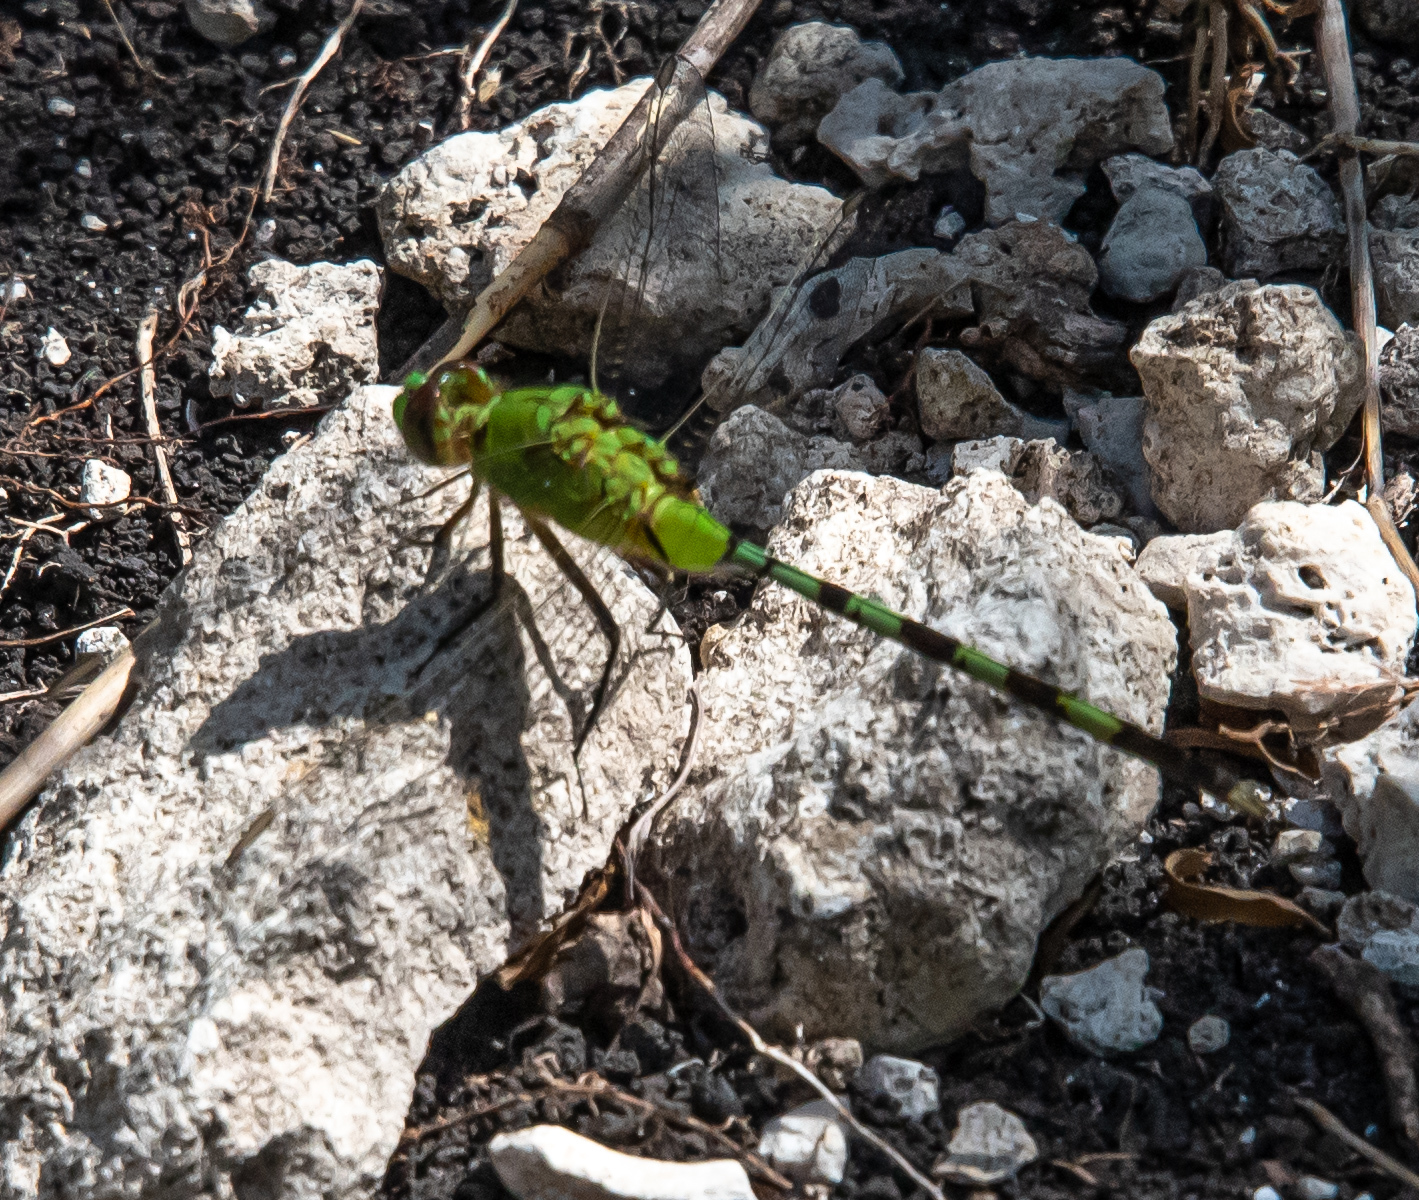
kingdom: Animalia
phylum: Arthropoda
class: Insecta
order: Odonata
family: Libellulidae
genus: Erythemis
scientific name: Erythemis vesiculosa
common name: Great pondhawk
